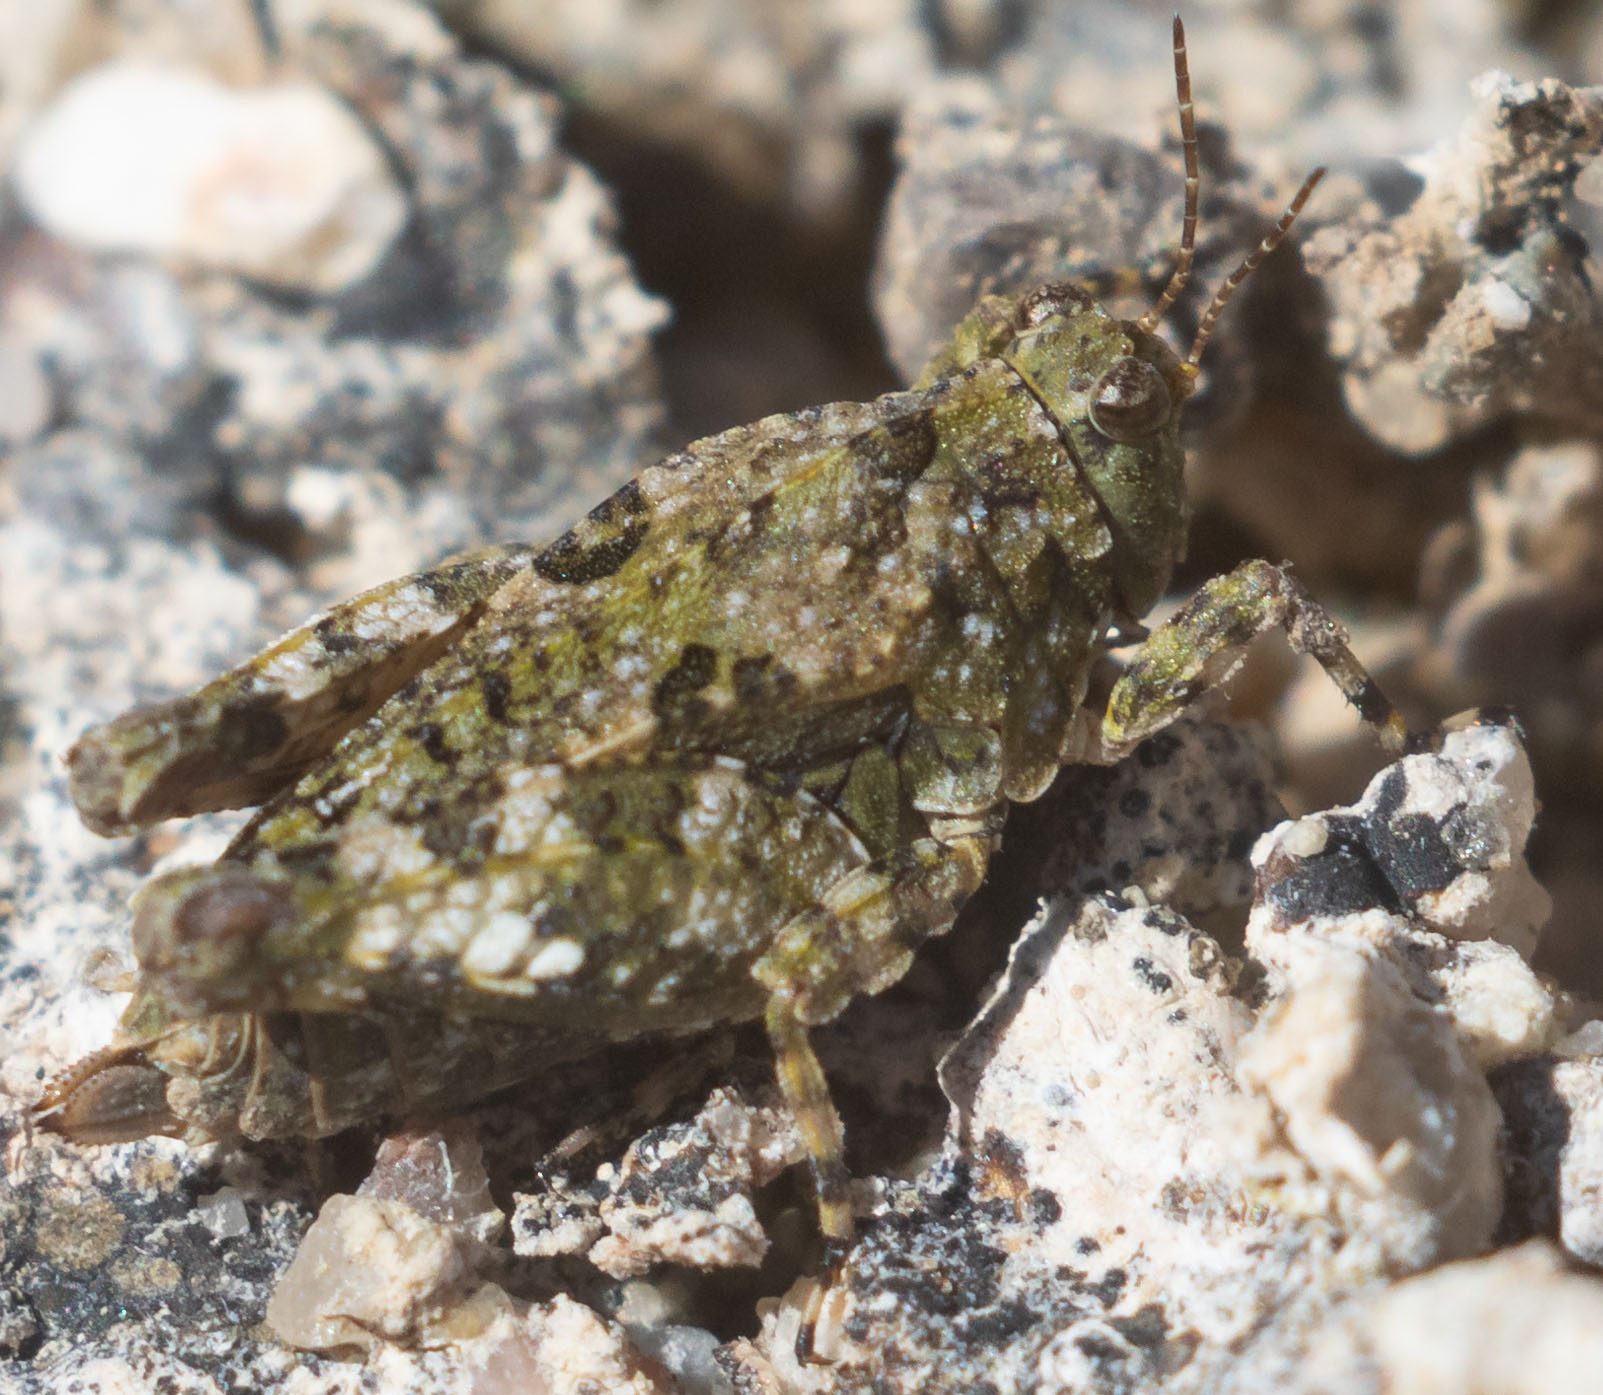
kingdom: Animalia
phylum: Arthropoda
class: Insecta
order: Orthoptera
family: Tetrigidae
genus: Paratettix
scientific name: Paratettix mexicanus
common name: Mexican pygmy grasshopper
